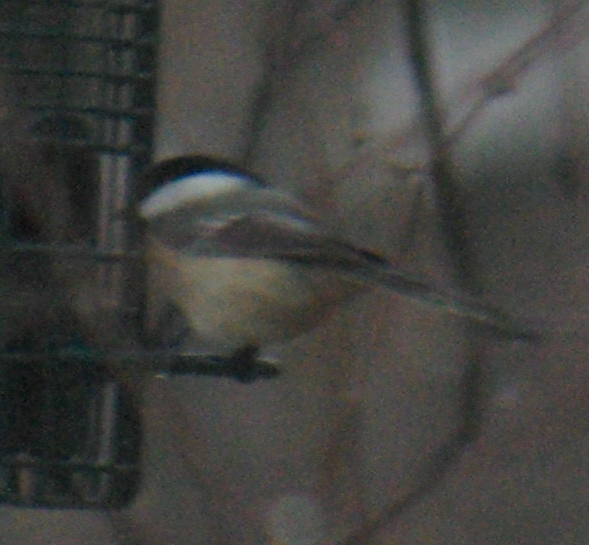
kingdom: Animalia
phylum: Chordata
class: Aves
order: Passeriformes
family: Paridae
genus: Poecile
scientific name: Poecile atricapillus
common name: Black-capped chickadee
